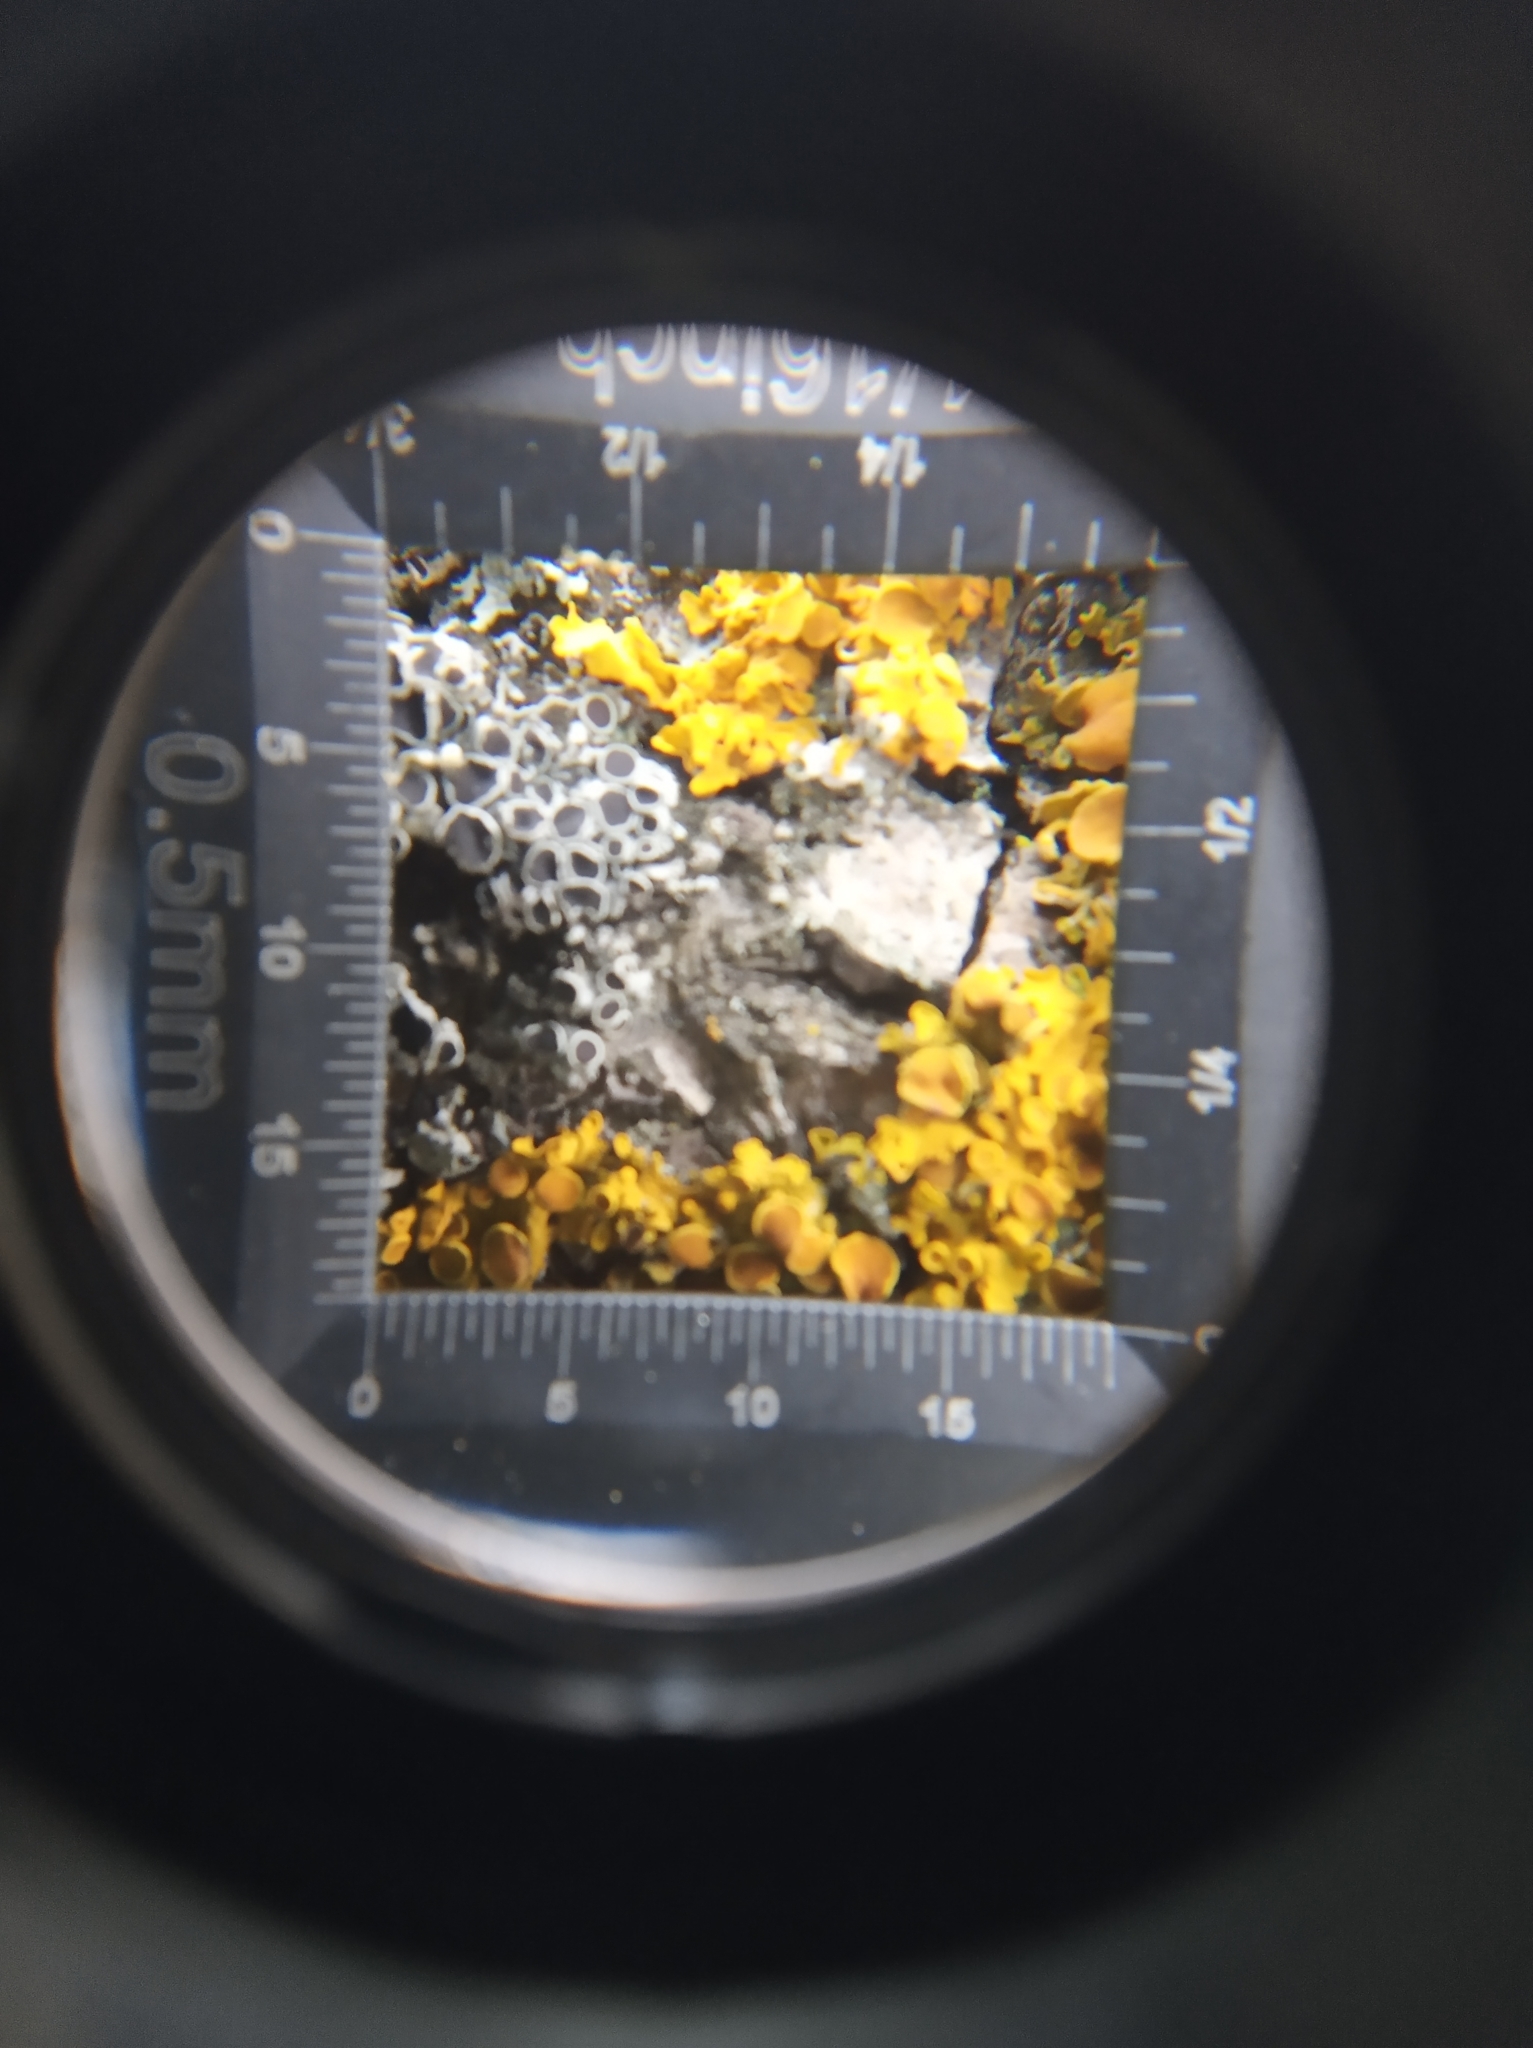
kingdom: Fungi
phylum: Ascomycota
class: Lecanoromycetes
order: Teloschistales
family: Teloschistaceae
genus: Xanthoria
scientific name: Xanthoria parietina
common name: Common orange lichen
